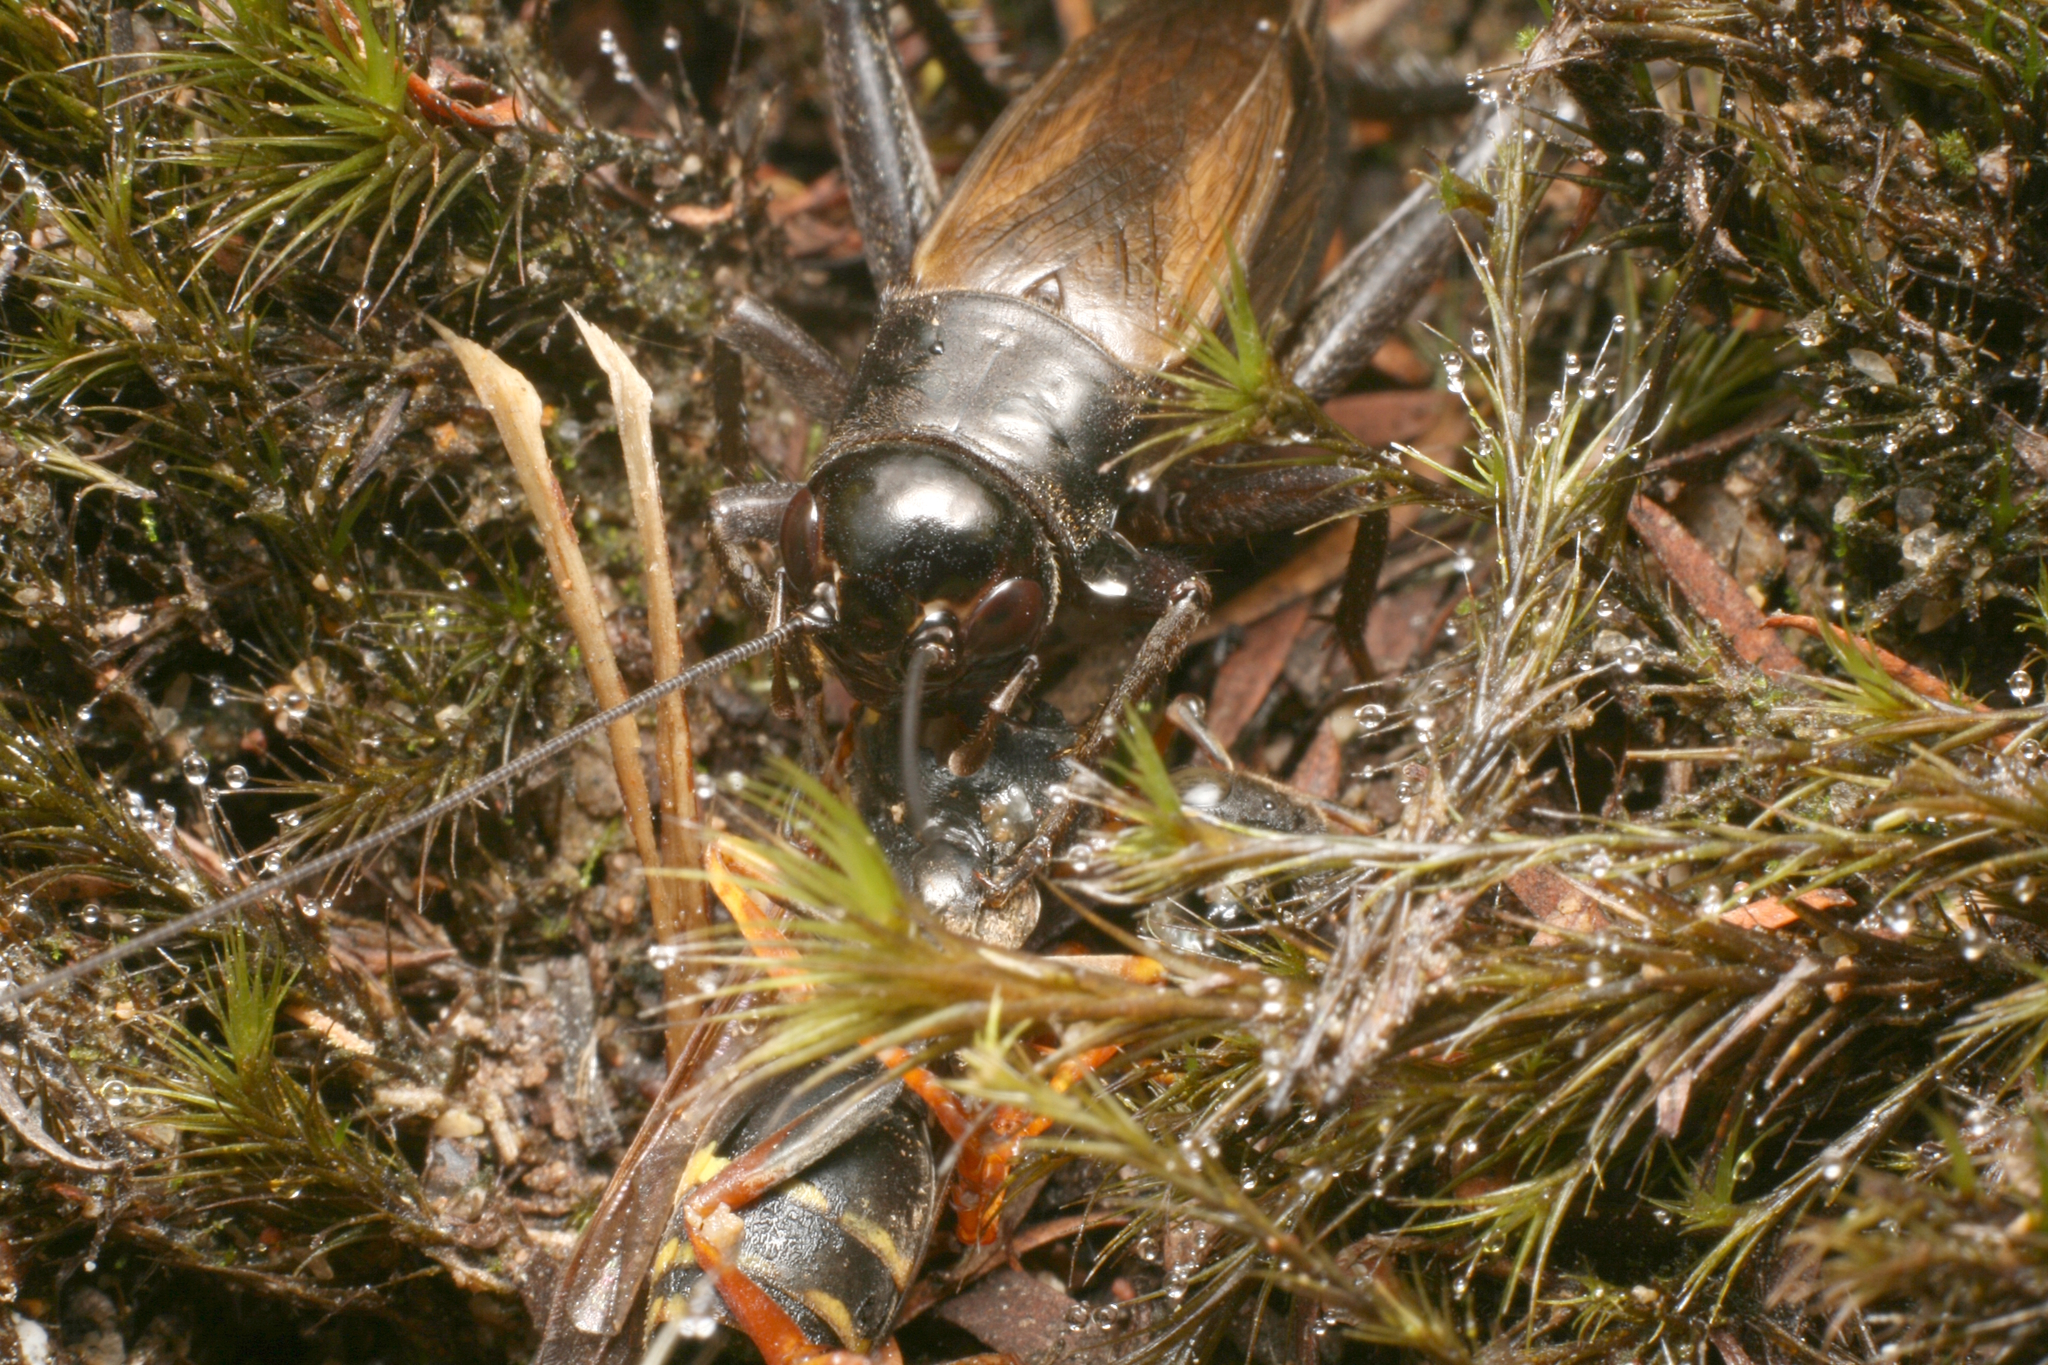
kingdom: Animalia
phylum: Arthropoda
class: Insecta
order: Orthoptera
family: Gryllidae
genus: Teleogryllus
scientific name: Teleogryllus commodus
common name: Black field cricket
